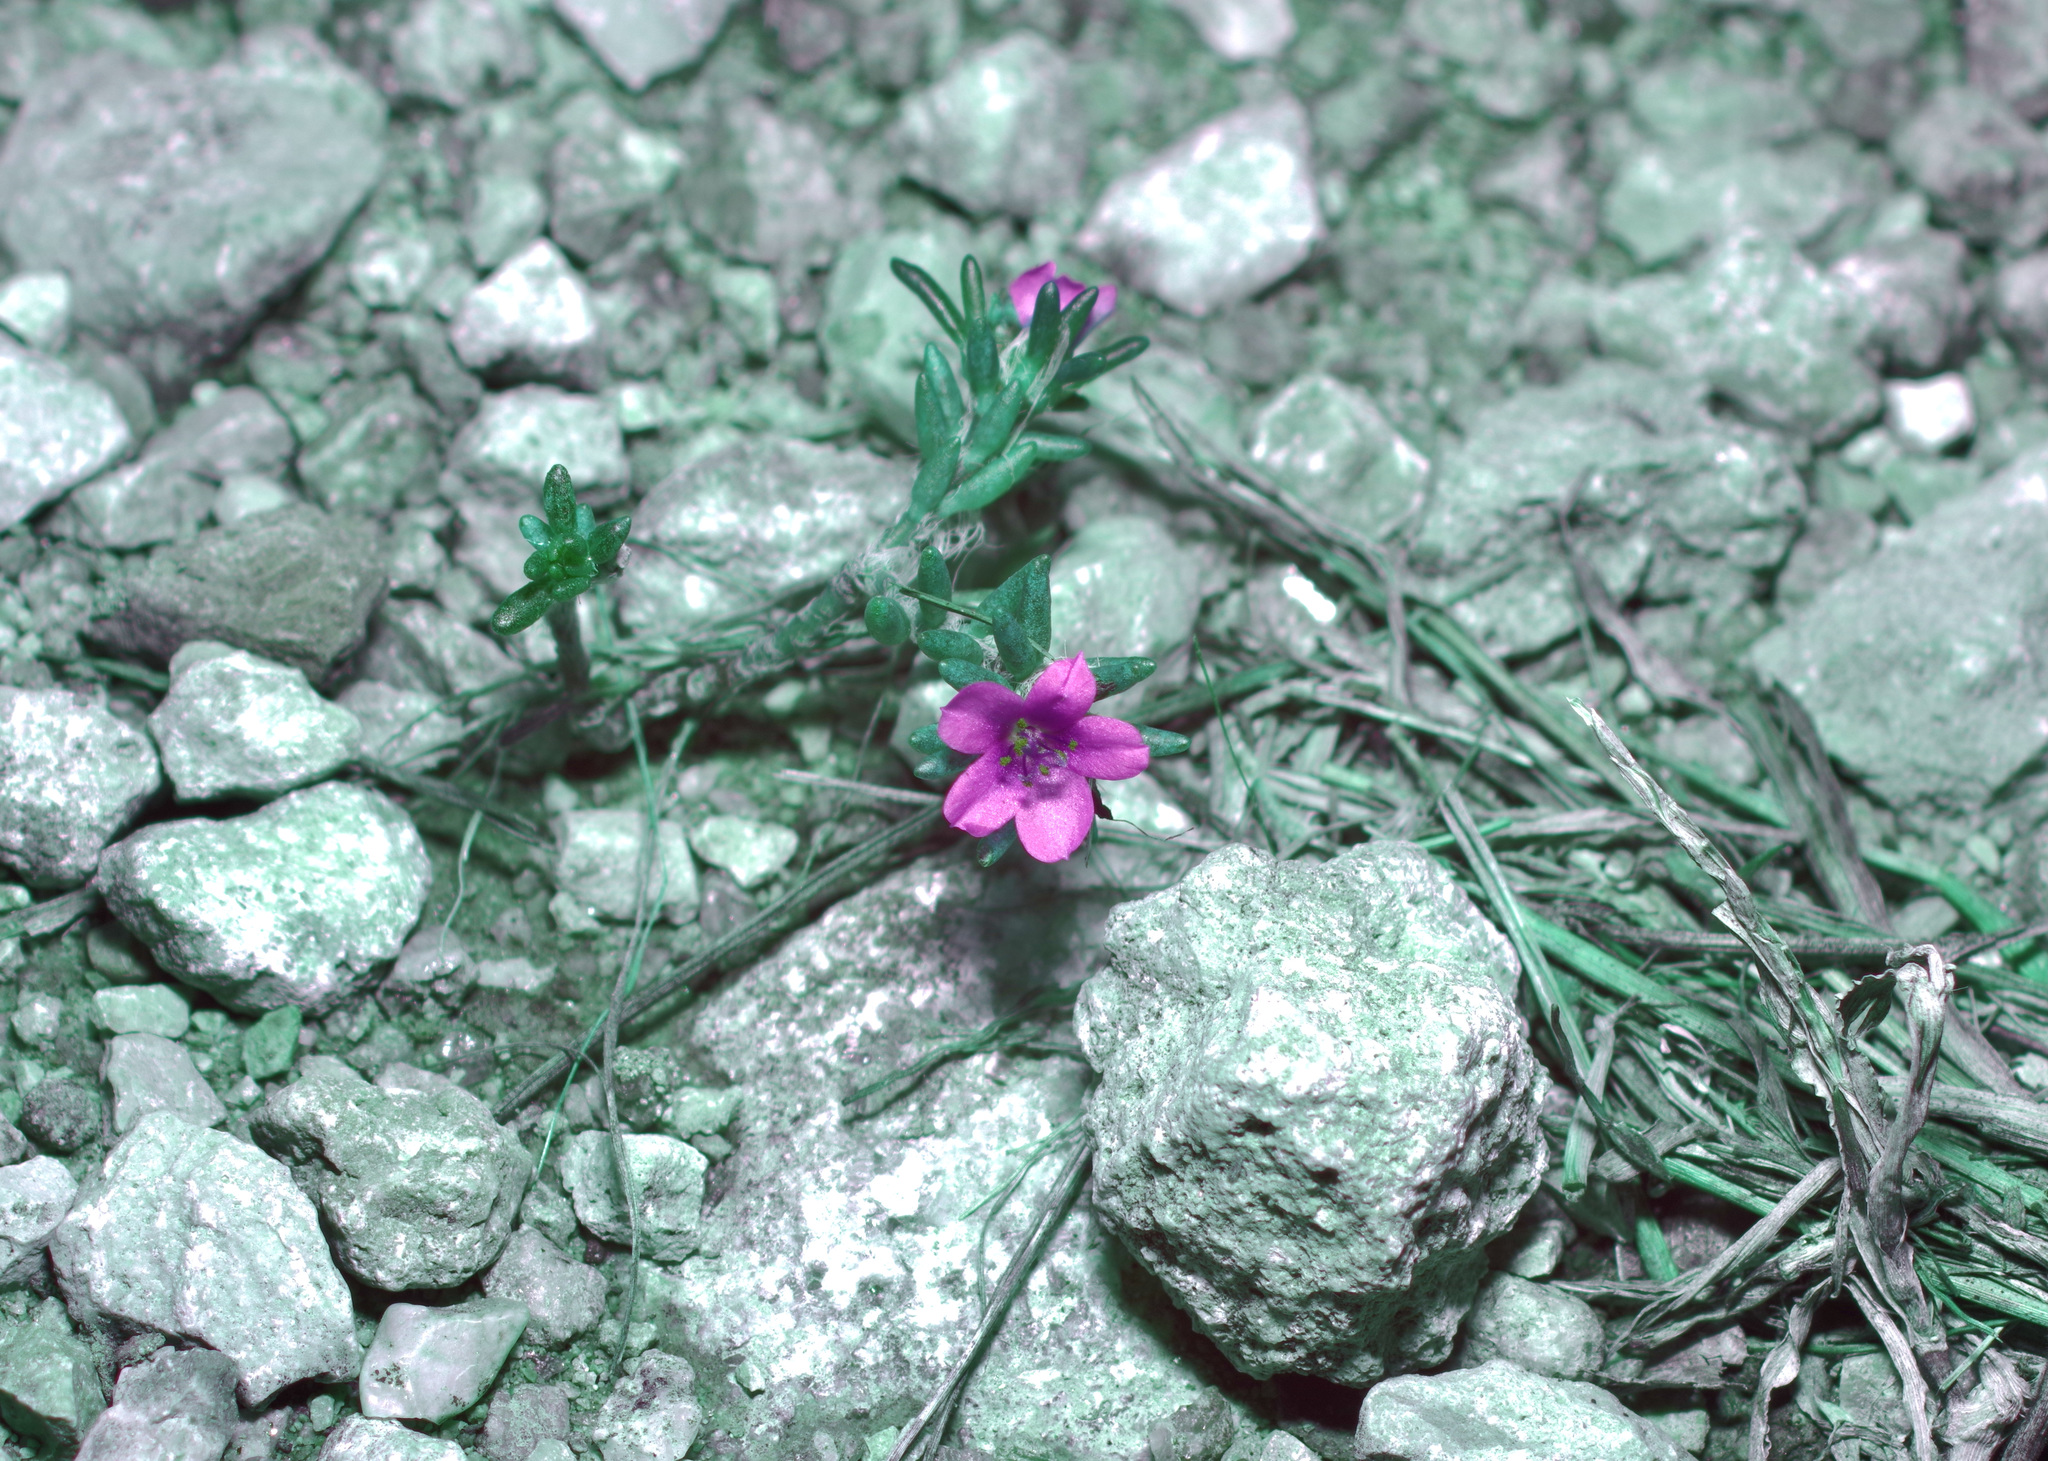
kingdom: Plantae
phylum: Tracheophyta
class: Magnoliopsida
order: Caryophyllales
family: Portulacaceae
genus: Portulaca
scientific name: Portulaca pilosa
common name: Kiss me quick
